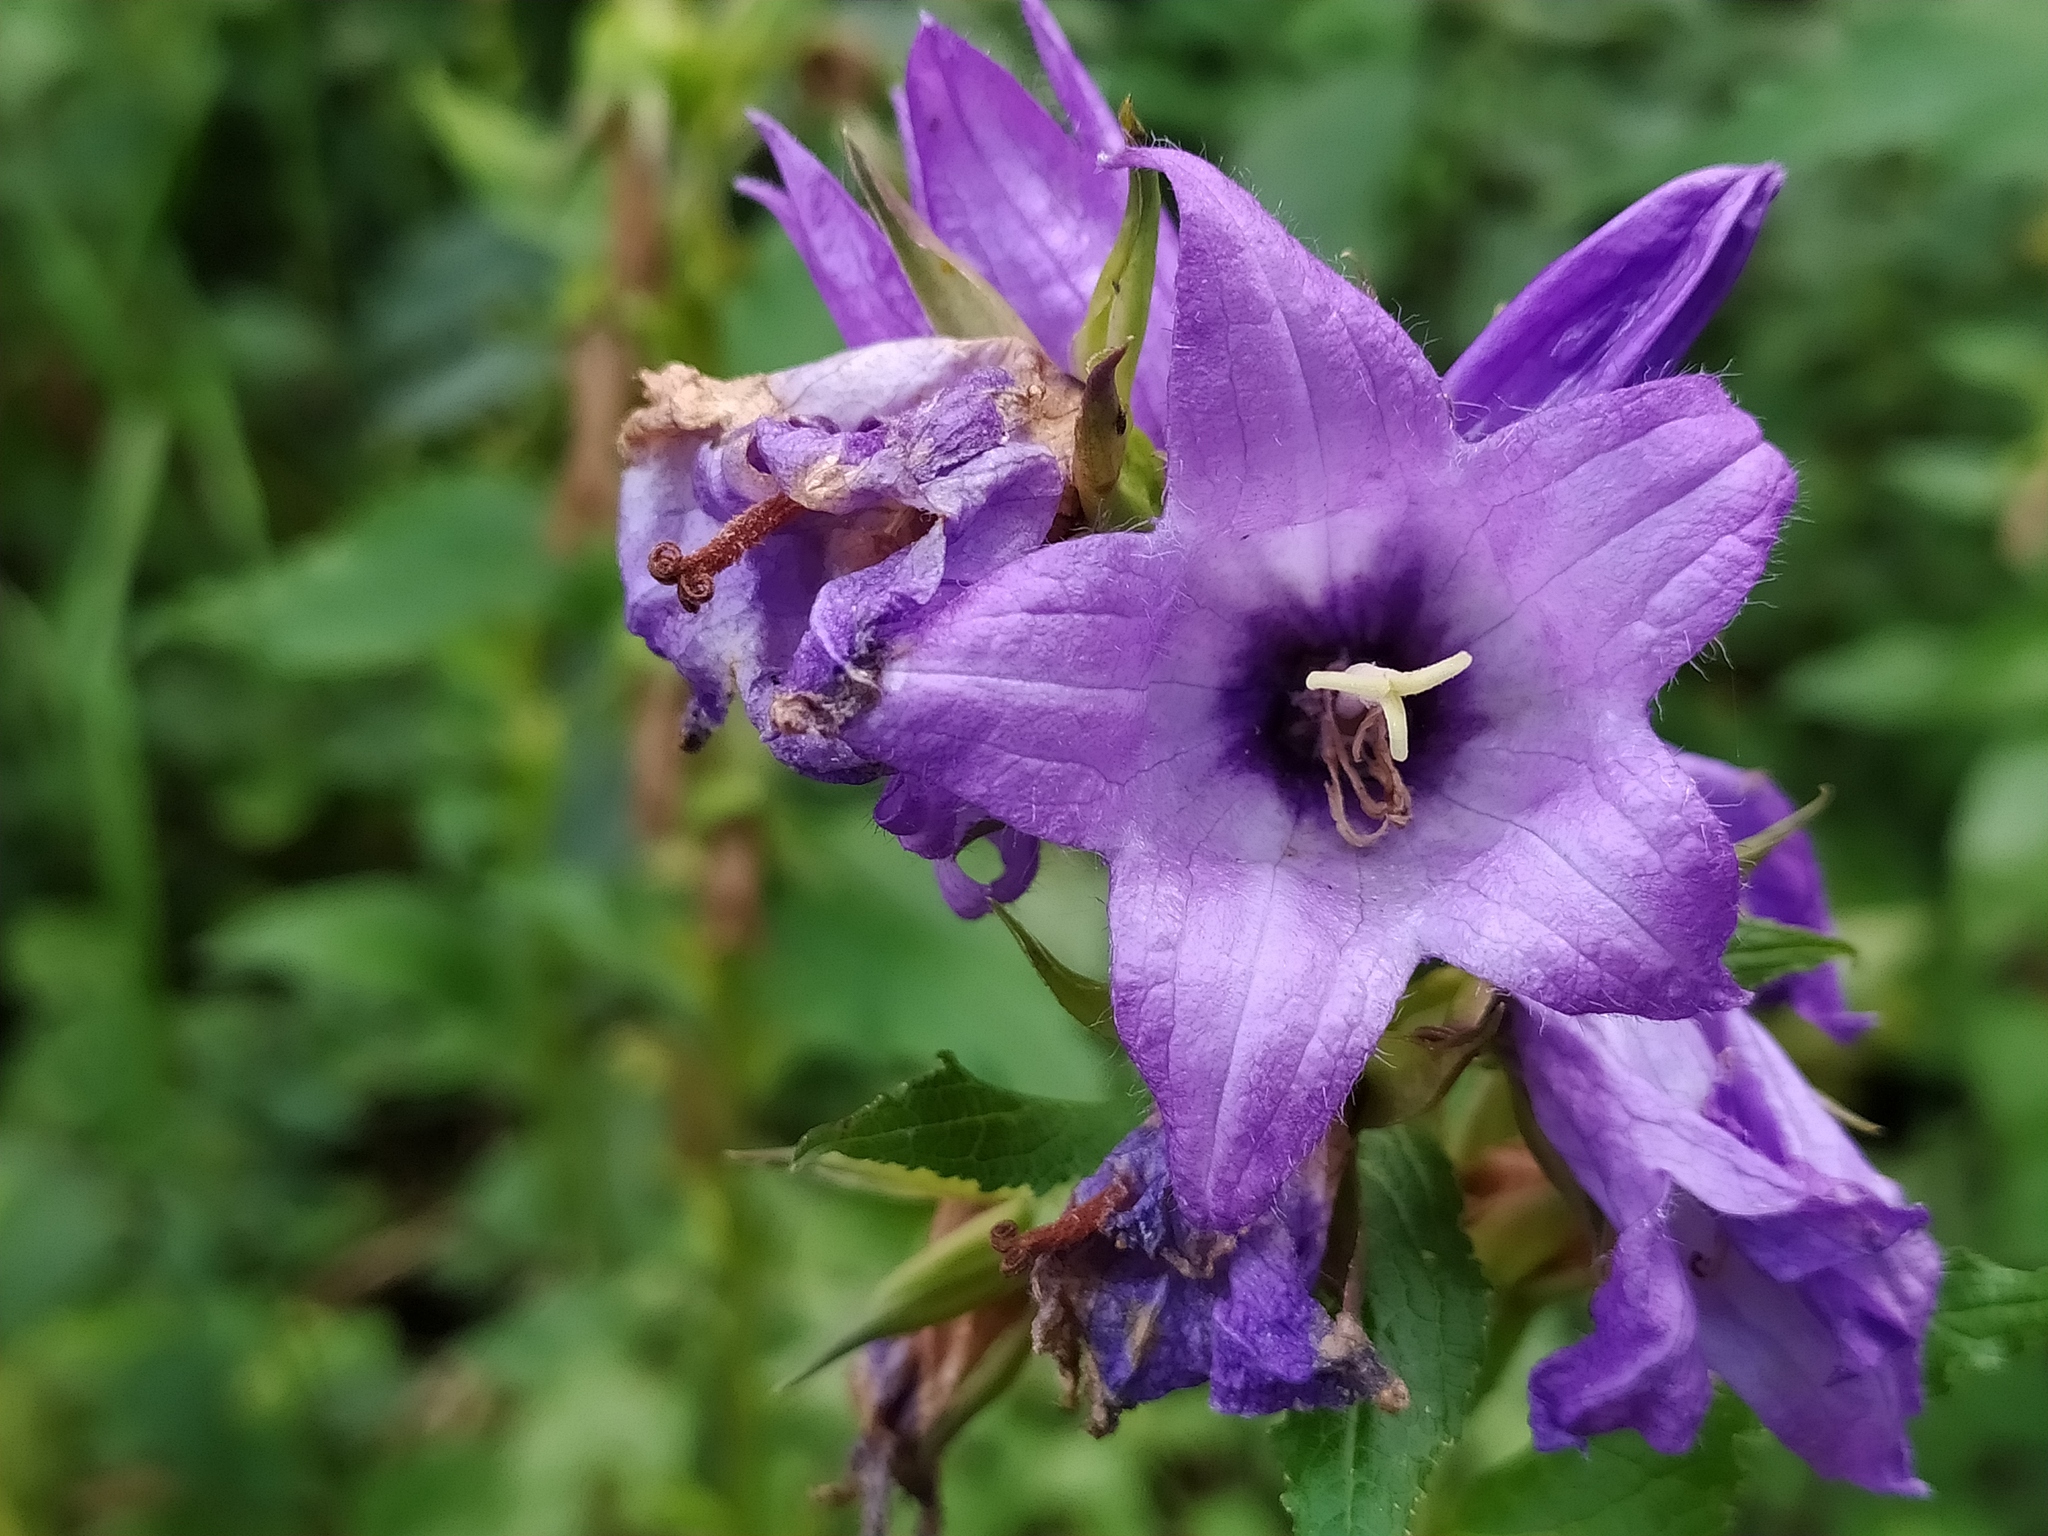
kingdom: Plantae
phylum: Tracheophyta
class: Magnoliopsida
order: Asterales
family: Campanulaceae
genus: Campanula
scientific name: Campanula latifolia
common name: Giant bellflower
